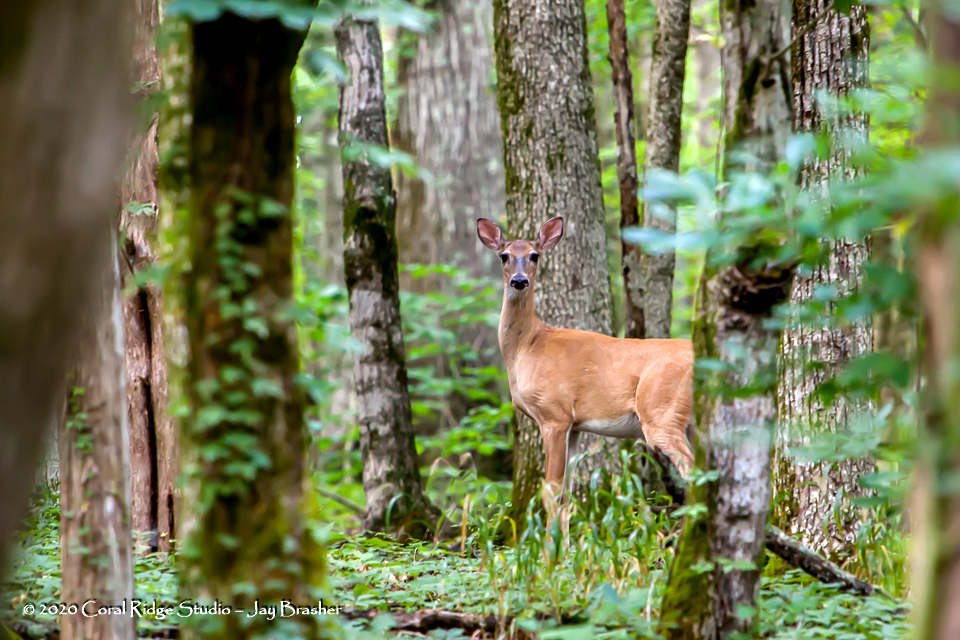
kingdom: Animalia
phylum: Chordata
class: Mammalia
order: Artiodactyla
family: Cervidae
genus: Odocoileus
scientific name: Odocoileus virginianus
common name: White-tailed deer
